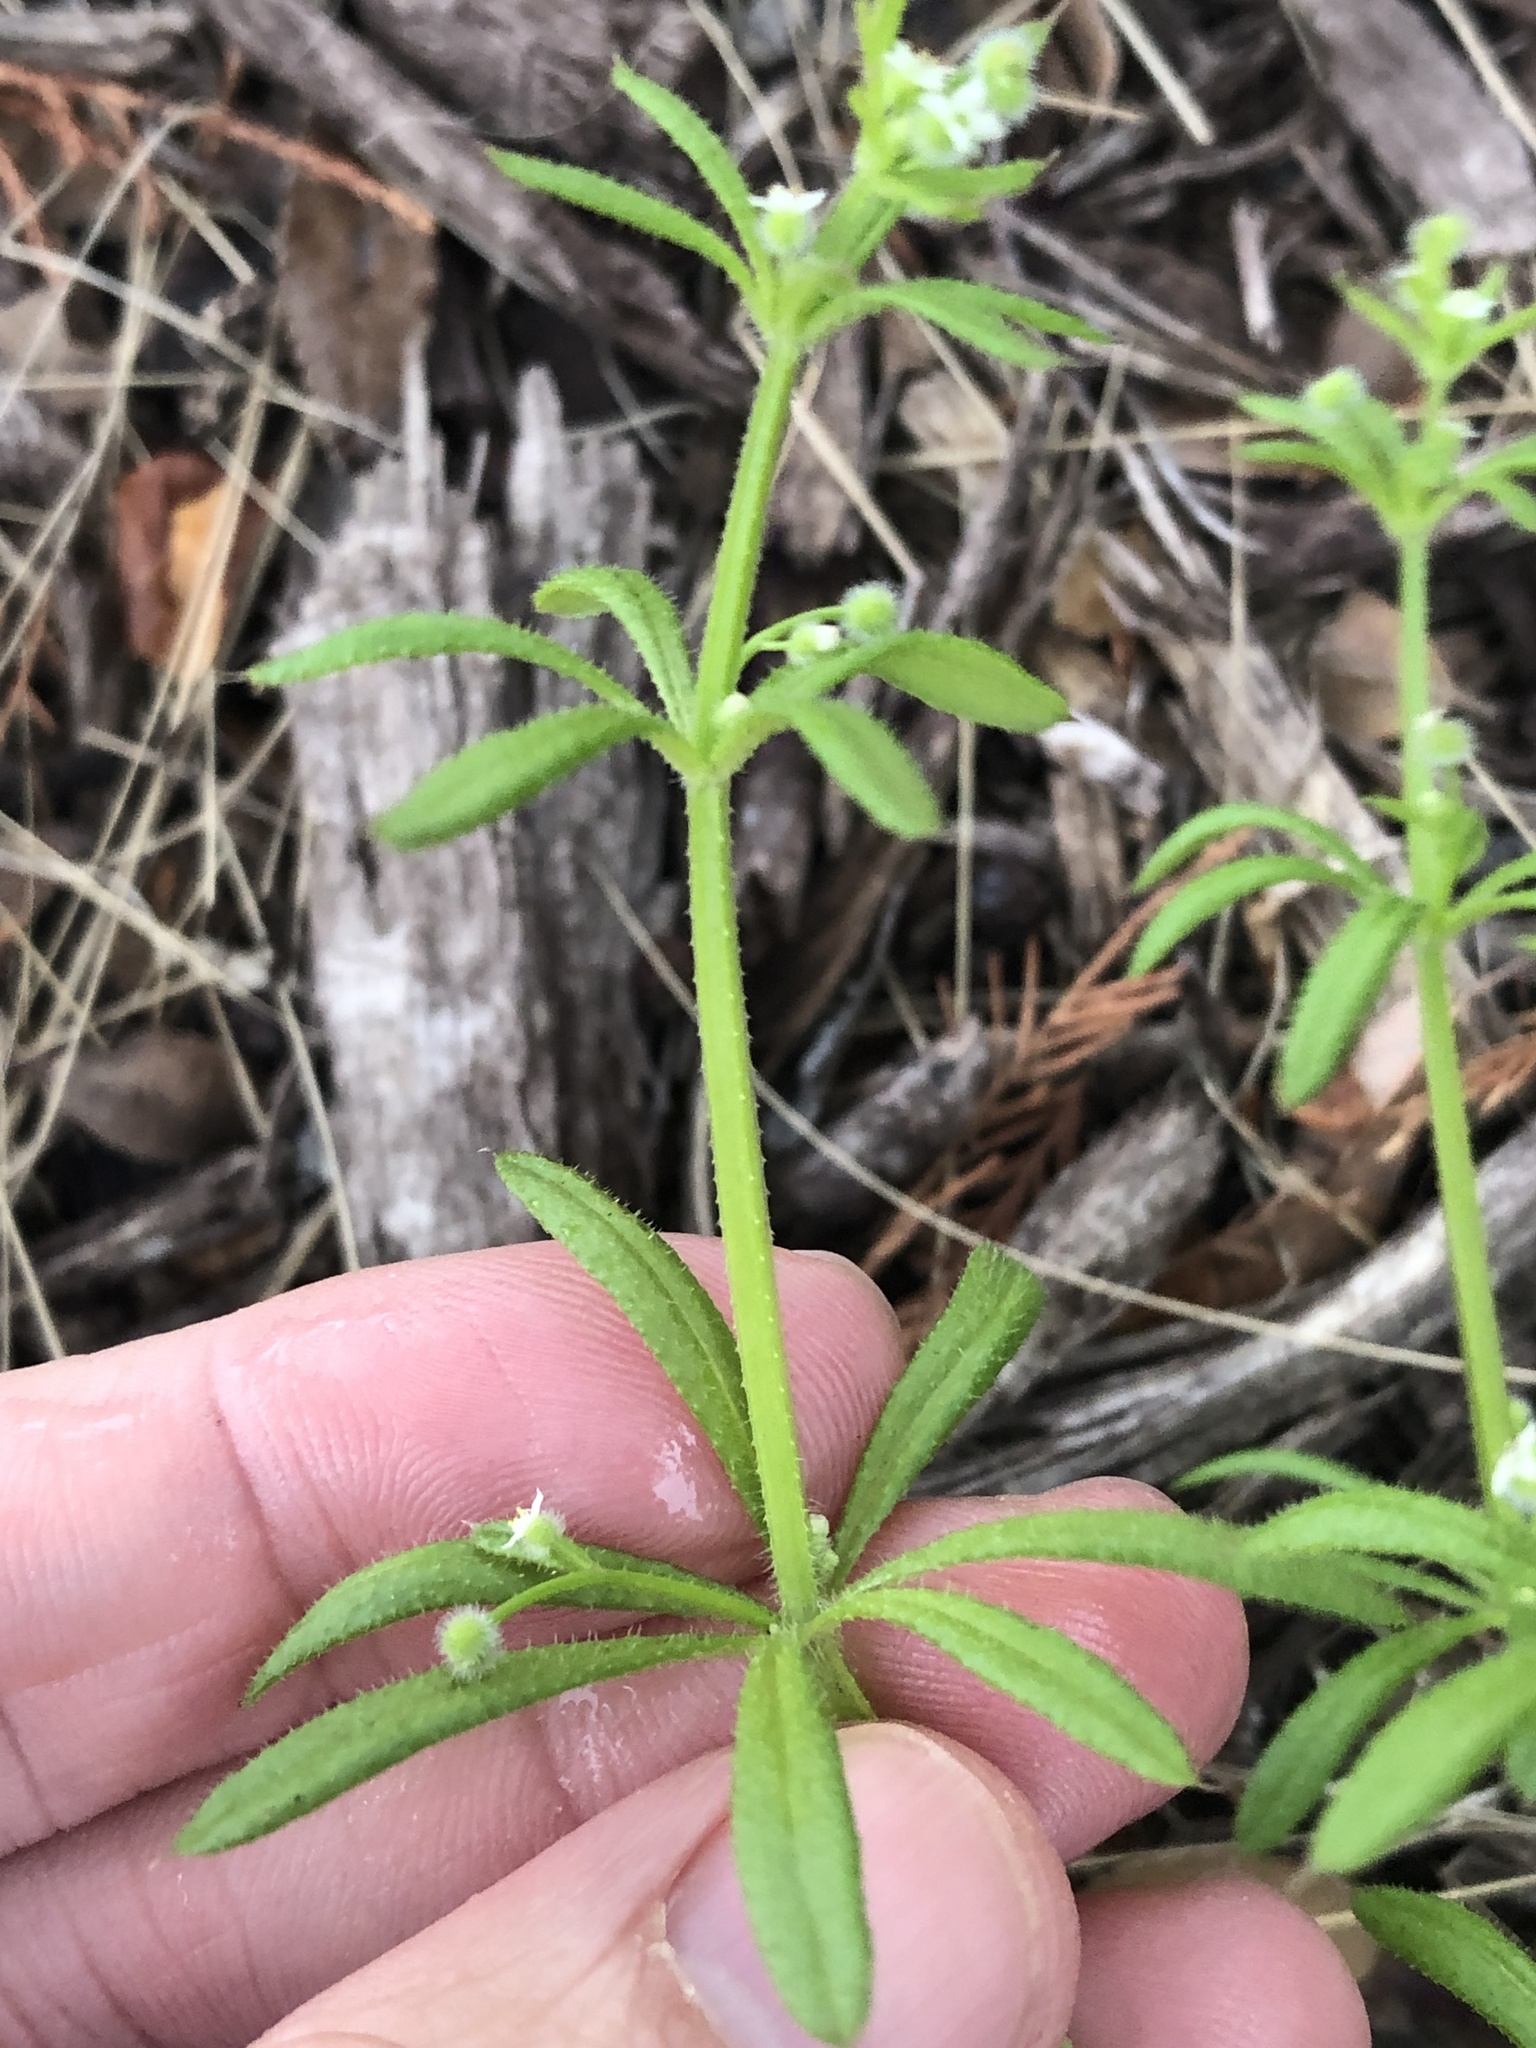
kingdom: Plantae
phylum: Tracheophyta
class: Magnoliopsida
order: Gentianales
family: Rubiaceae
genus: Galium
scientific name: Galium aparine
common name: Cleavers
